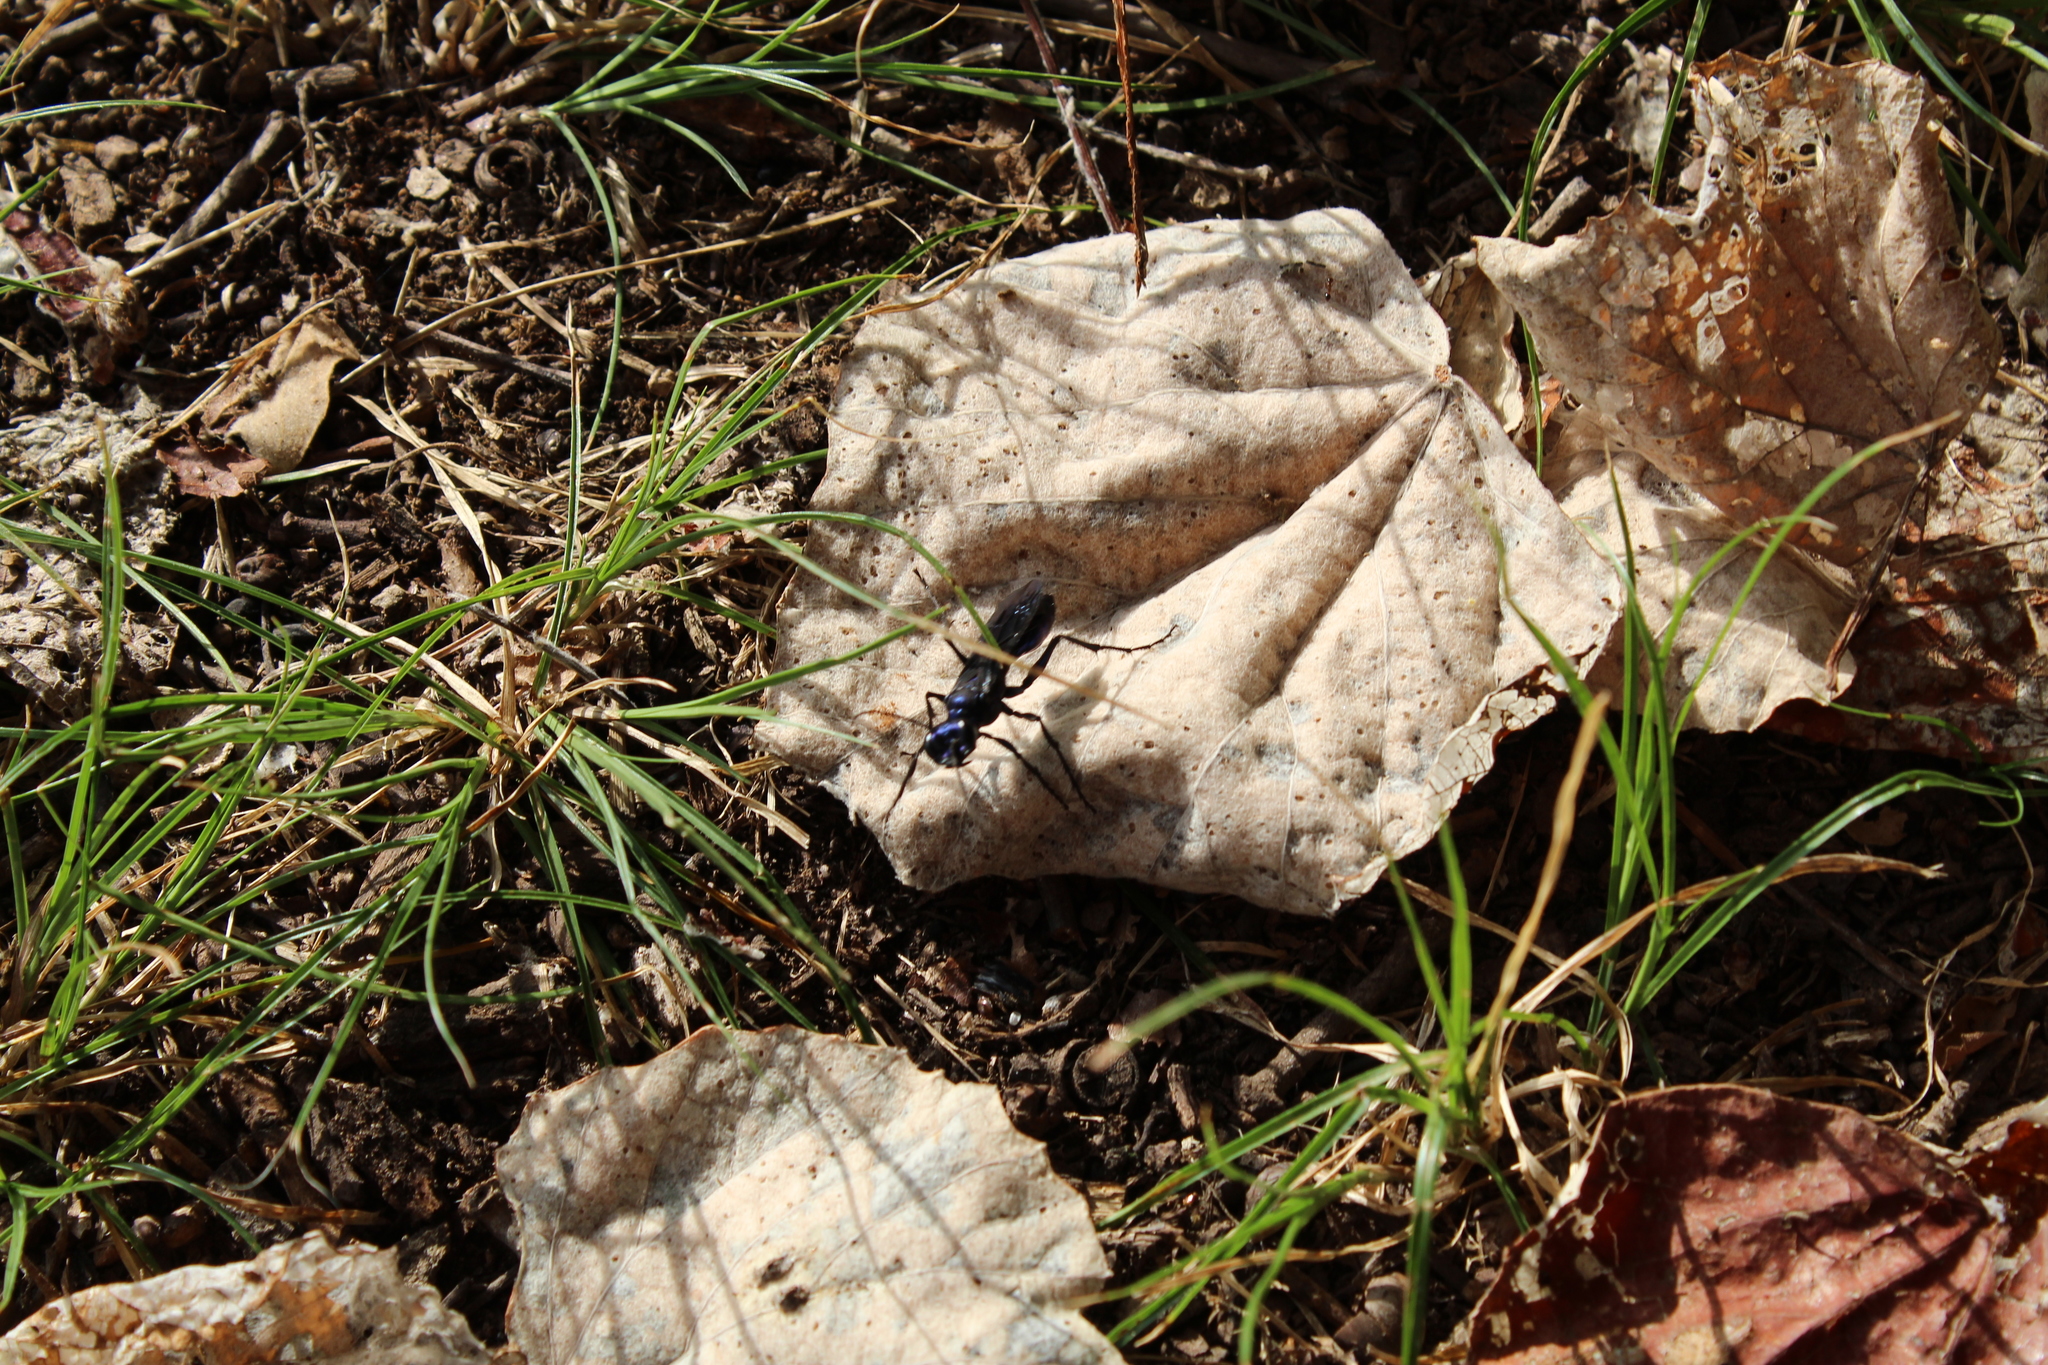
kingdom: Animalia
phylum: Arthropoda
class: Insecta
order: Hymenoptera
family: Sphecidae
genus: Chlorion
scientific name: Chlorion aerarium
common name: Steel-blue cricket hunter
